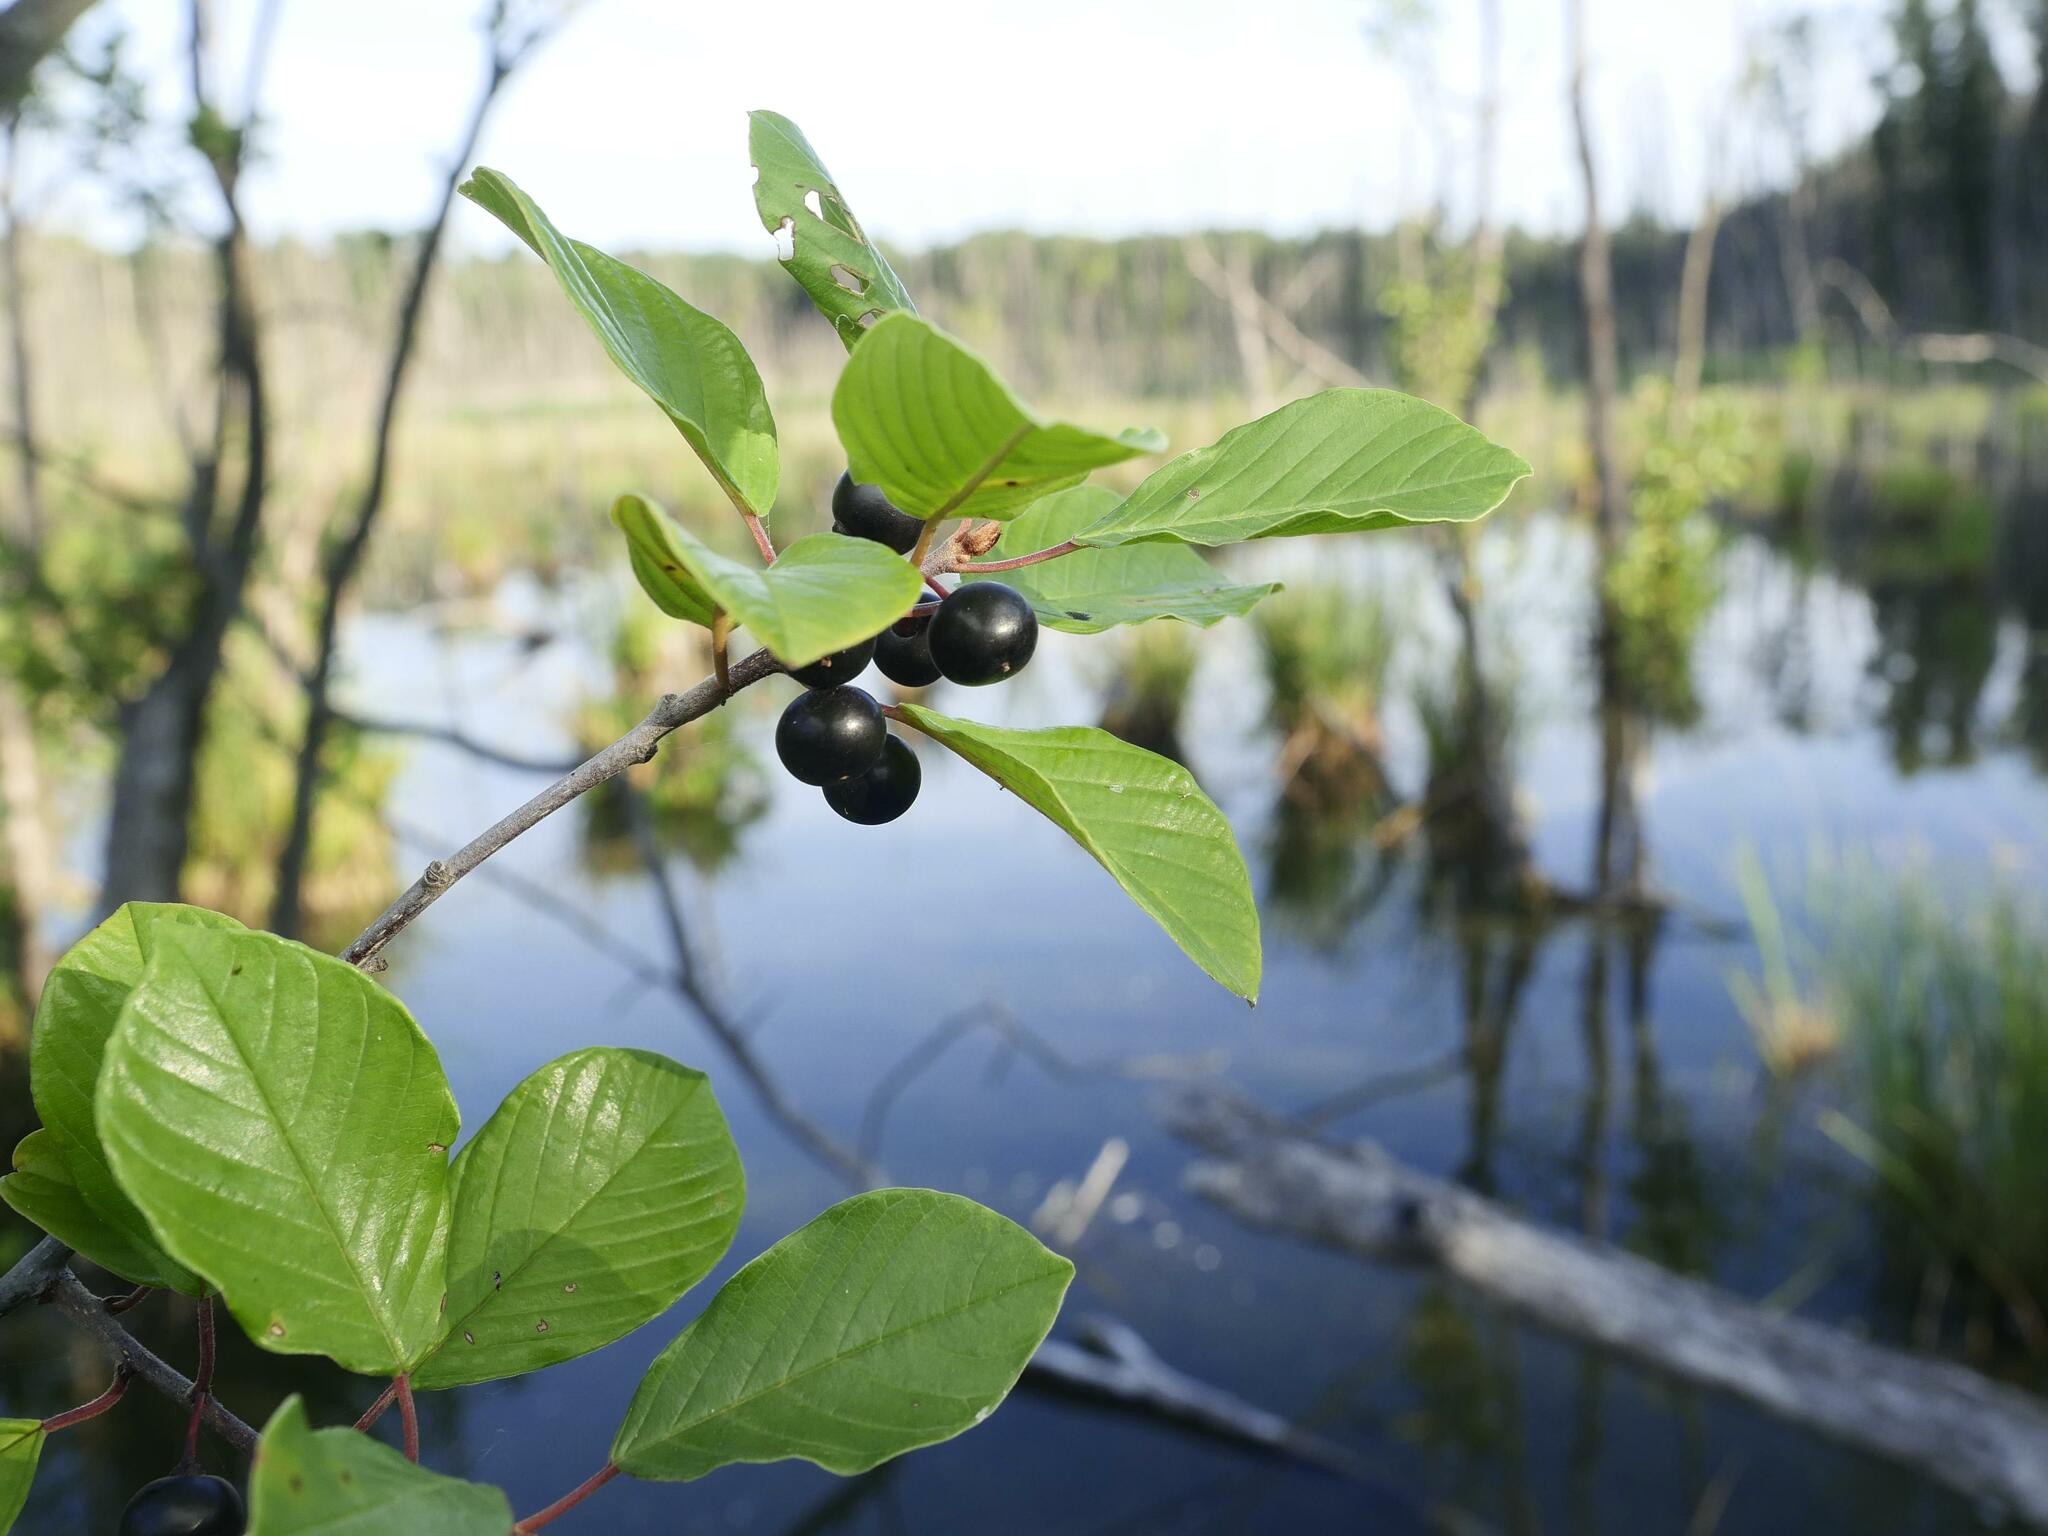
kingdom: Plantae
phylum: Tracheophyta
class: Magnoliopsida
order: Rosales
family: Rhamnaceae
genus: Frangula
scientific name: Frangula alnus
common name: Alder buckthorn
